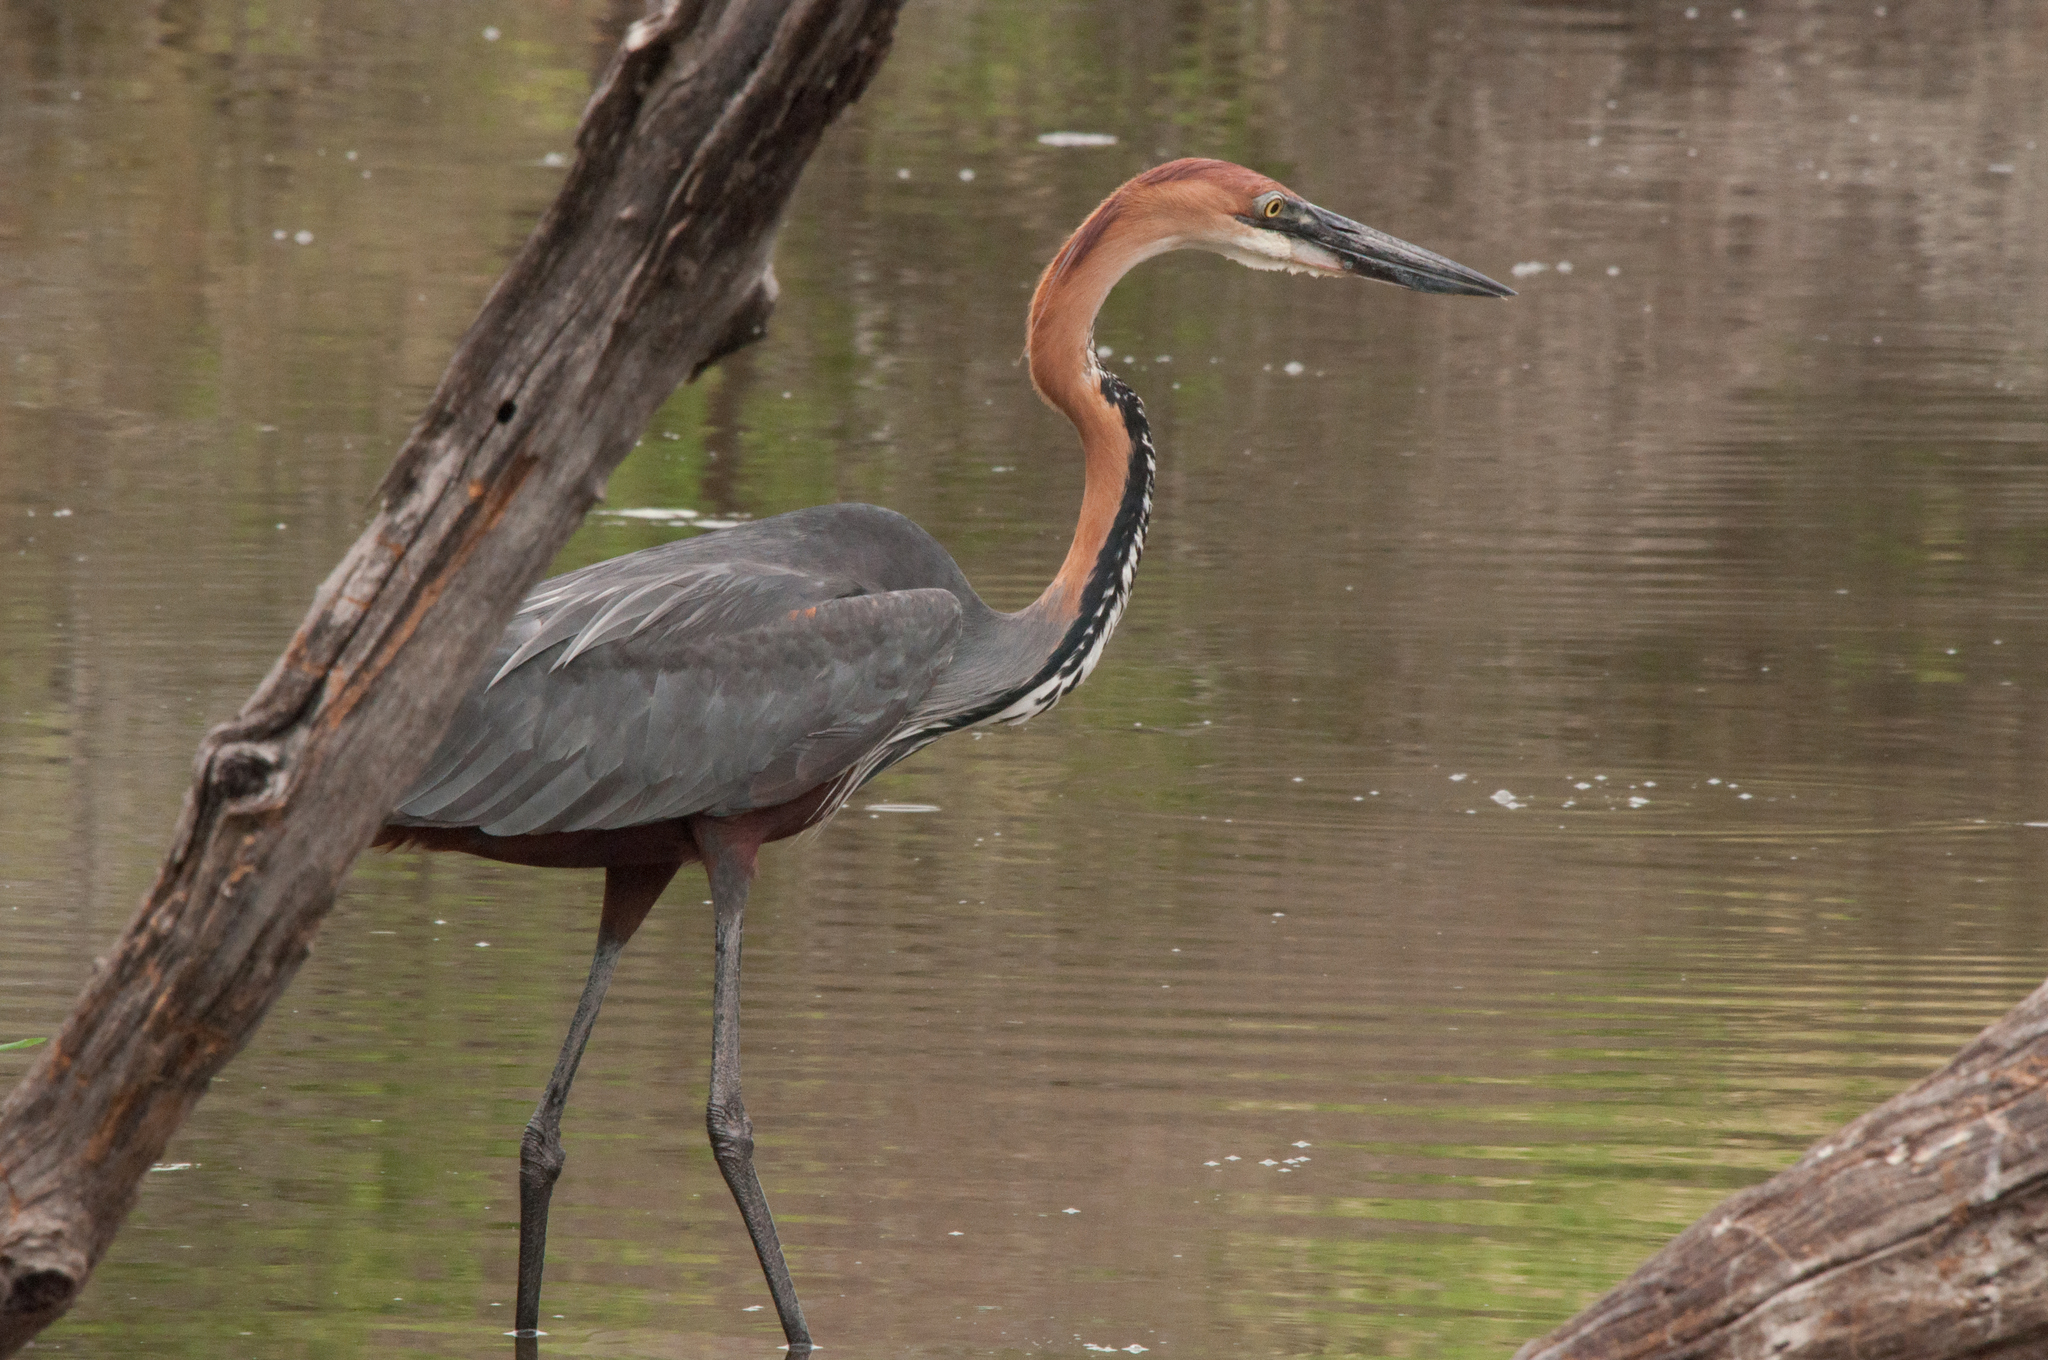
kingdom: Animalia
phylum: Chordata
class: Aves
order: Pelecaniformes
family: Ardeidae
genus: Ardea
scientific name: Ardea goliath
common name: Goliath heron
